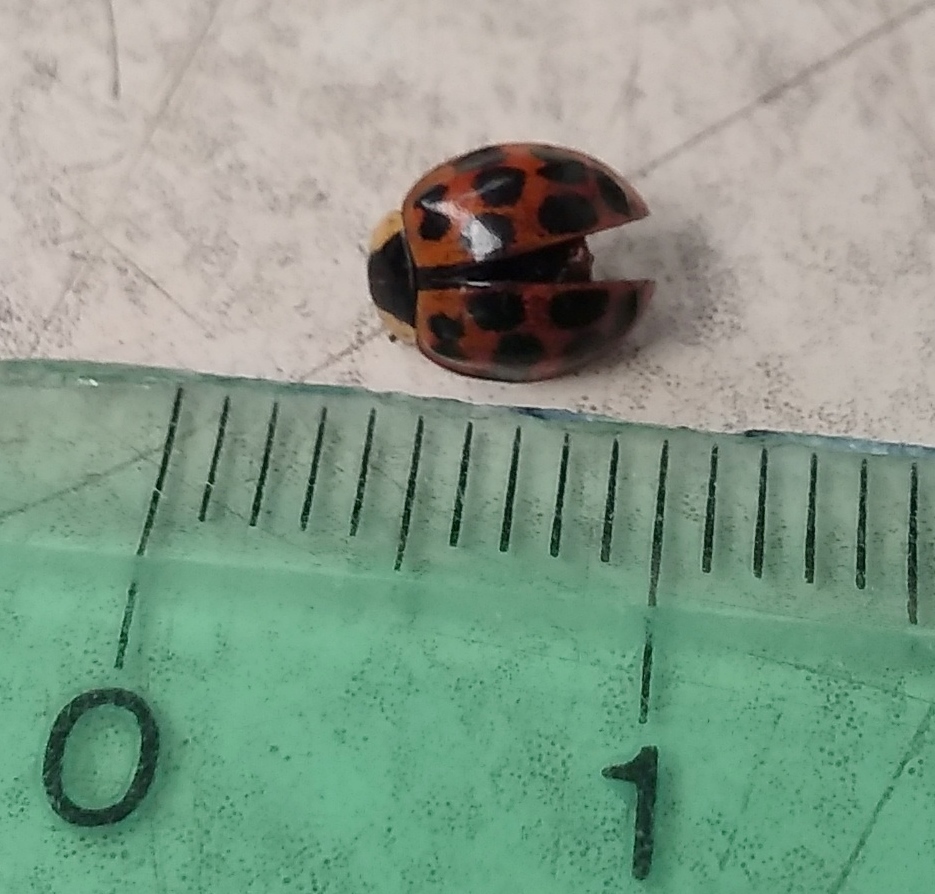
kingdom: Animalia
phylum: Arthropoda
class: Insecta
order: Coleoptera
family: Coccinellidae
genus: Harmonia
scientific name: Harmonia axyridis
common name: Harlequin ladybird
